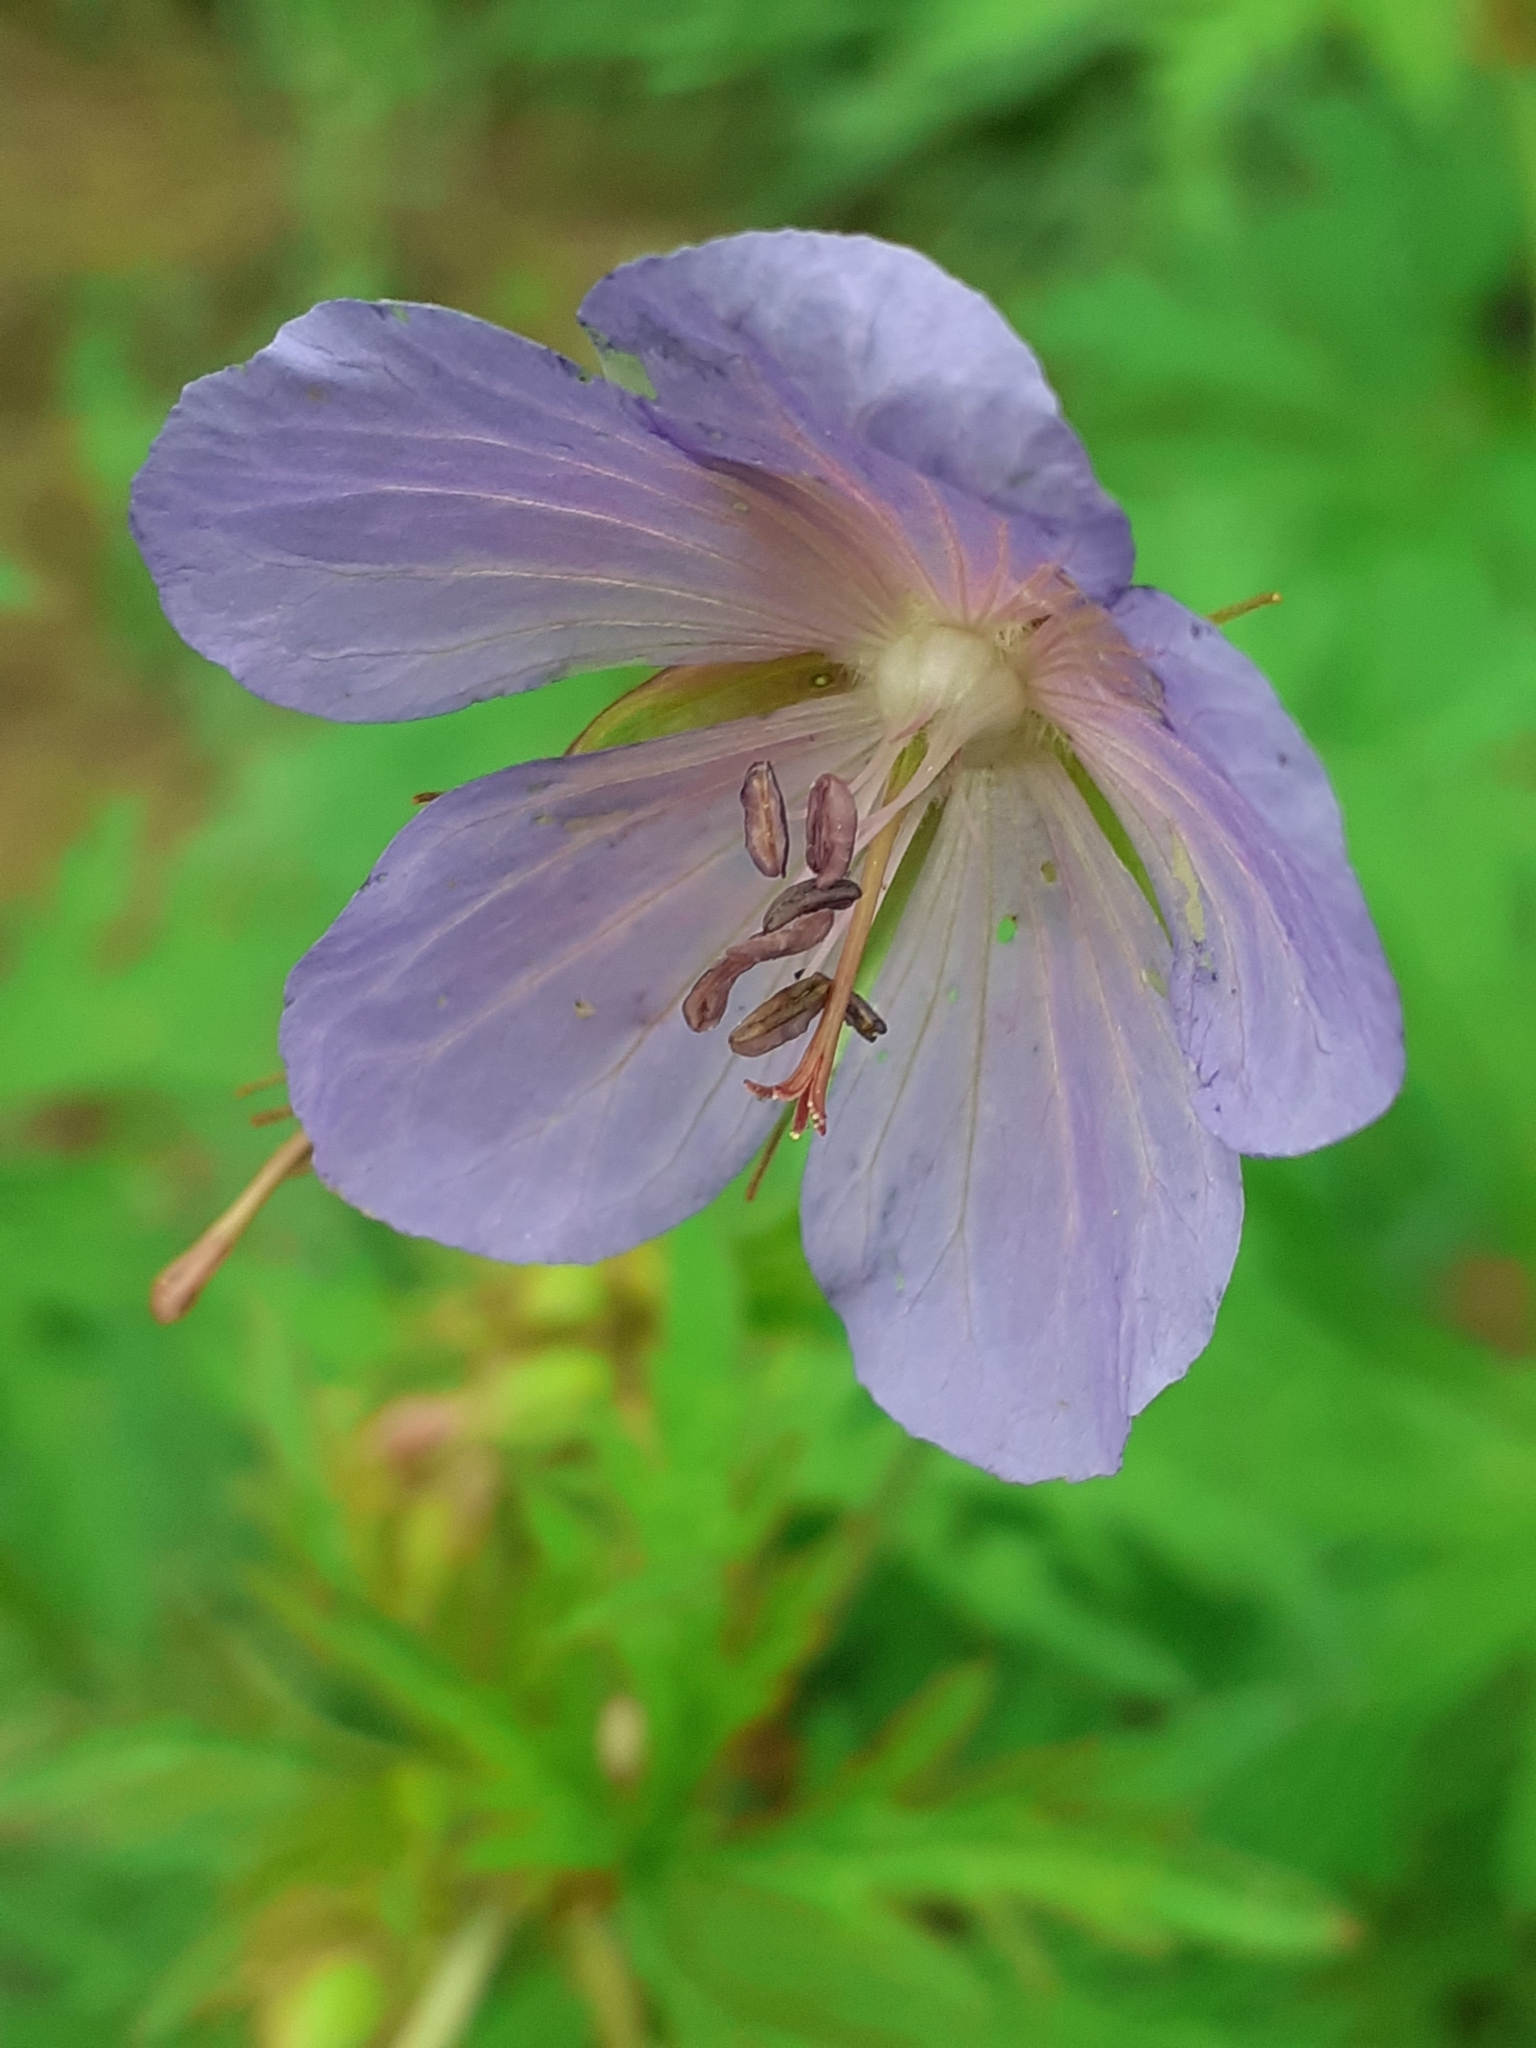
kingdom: Plantae
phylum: Tracheophyta
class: Magnoliopsida
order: Geraniales
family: Geraniaceae
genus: Geranium
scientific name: Geranium pratense
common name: Meadow crane's-bill
